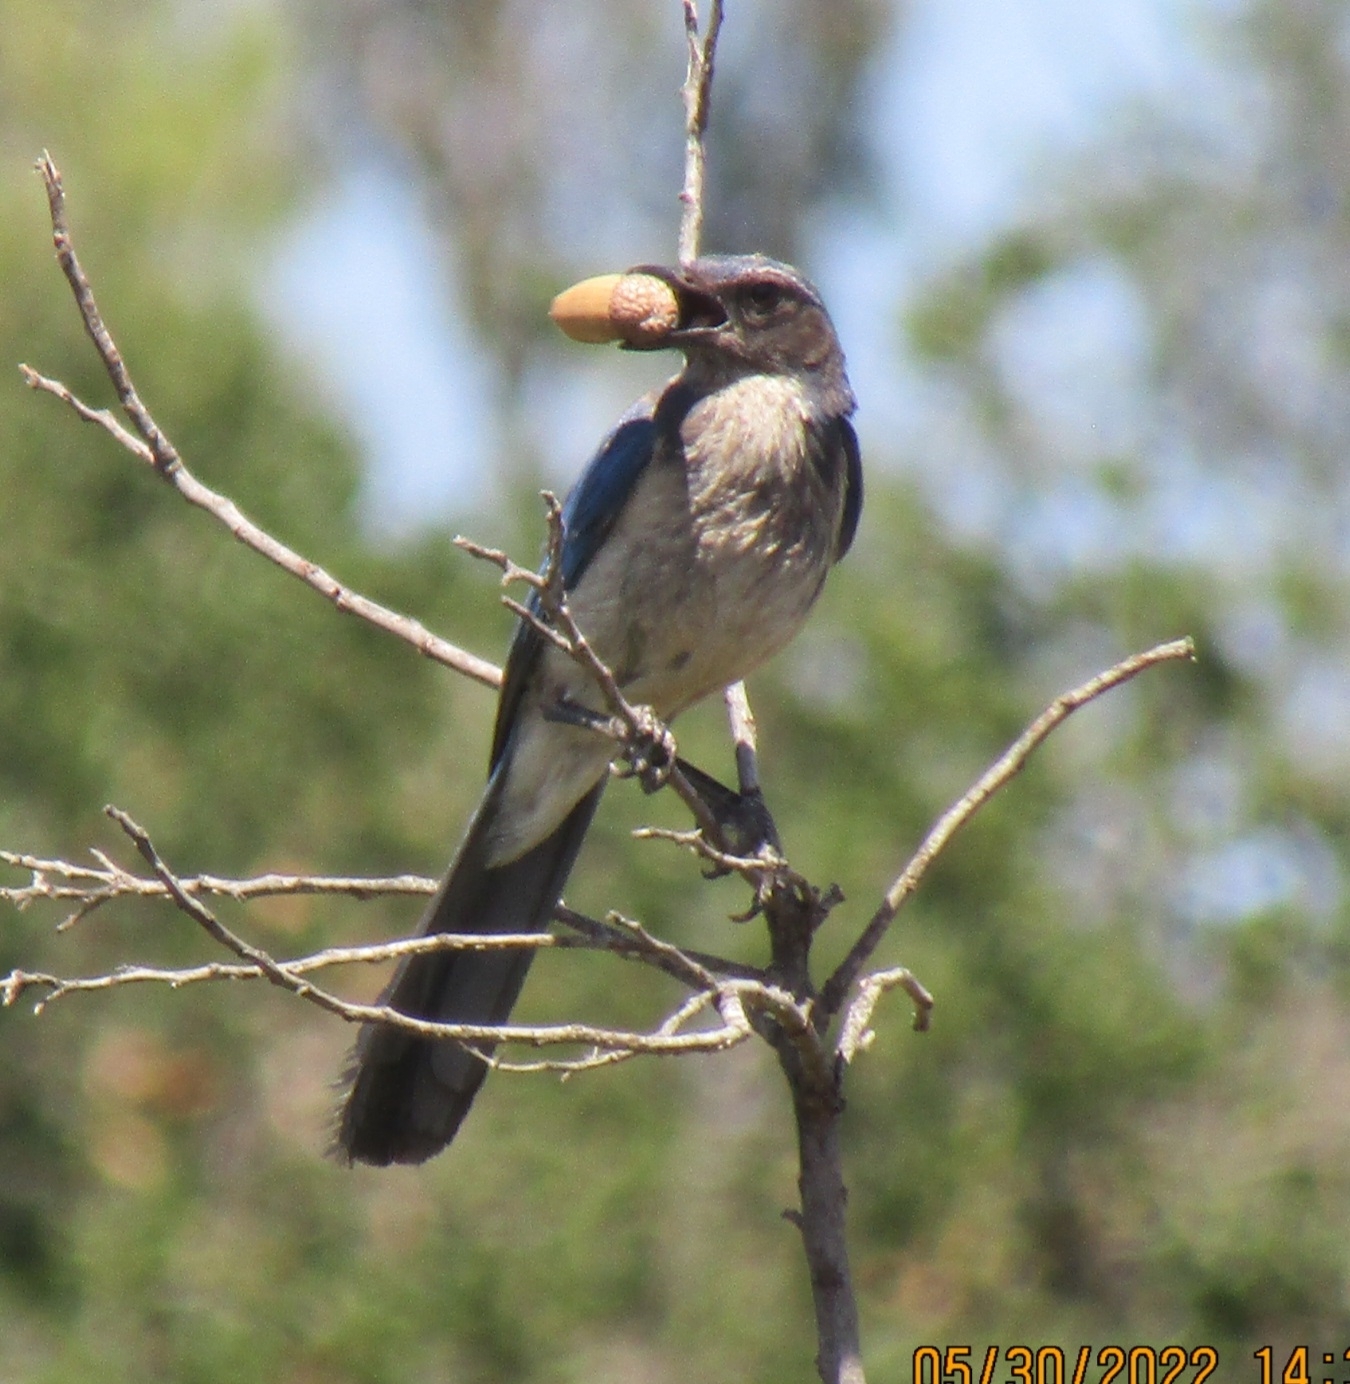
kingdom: Animalia
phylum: Chordata
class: Aves
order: Passeriformes
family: Corvidae
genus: Aphelocoma
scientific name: Aphelocoma californica
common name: California scrub-jay
